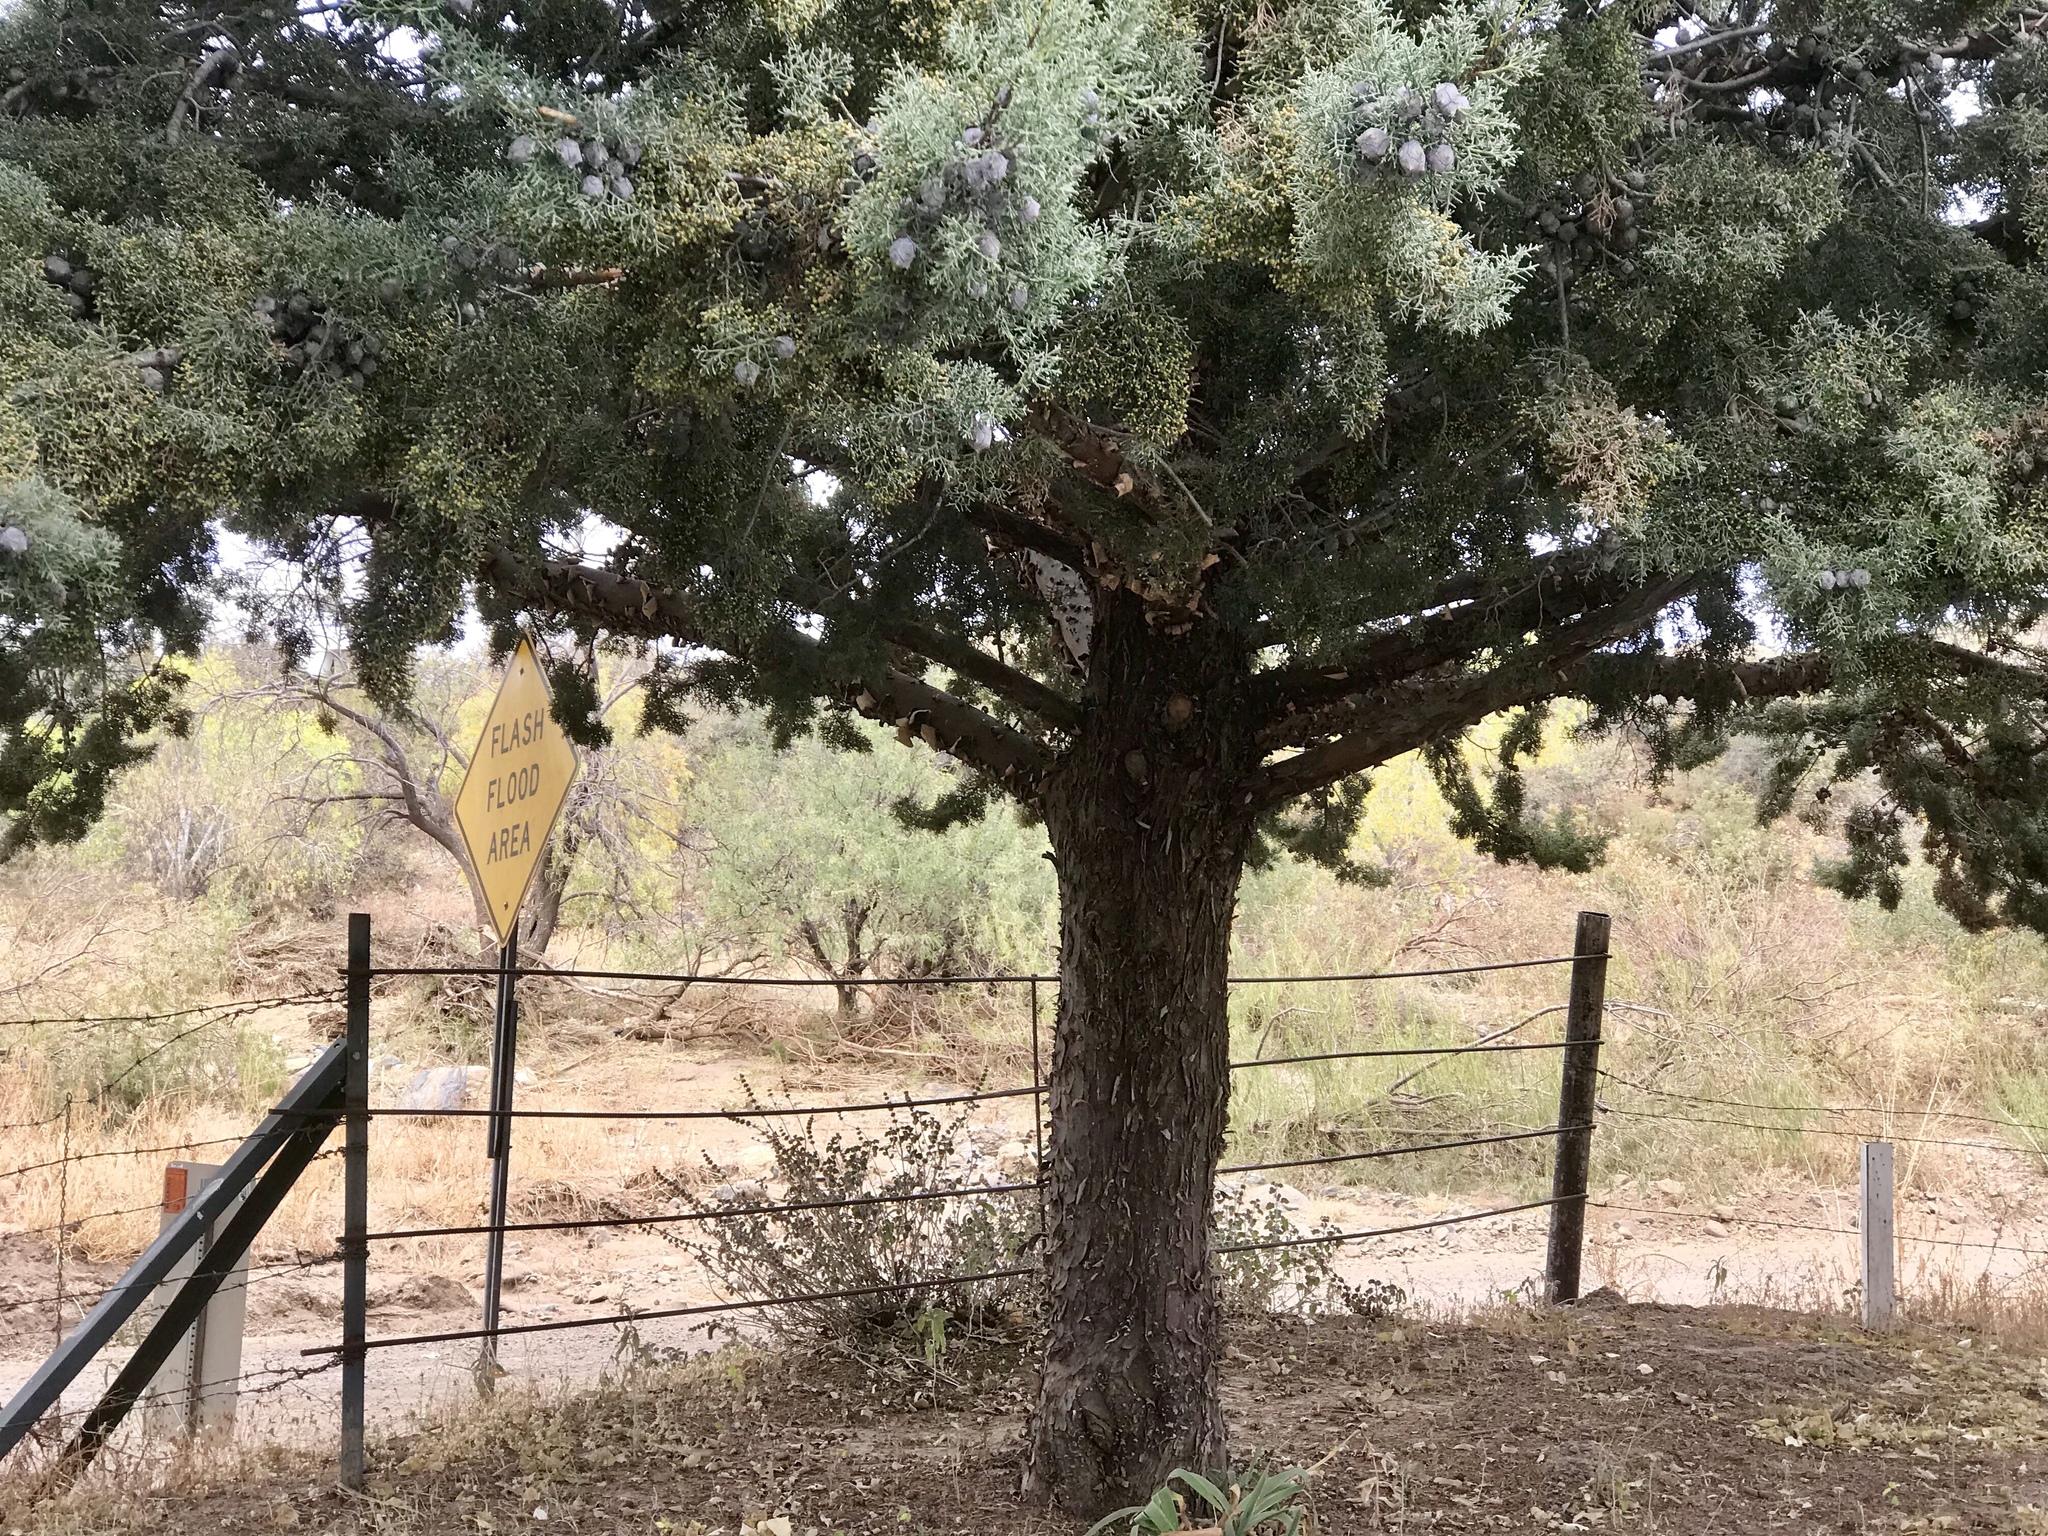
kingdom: Plantae
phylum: Tracheophyta
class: Pinopsida
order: Pinales
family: Cupressaceae
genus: Cupressus
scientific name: Cupressus arizonica
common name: Arizona cypress
